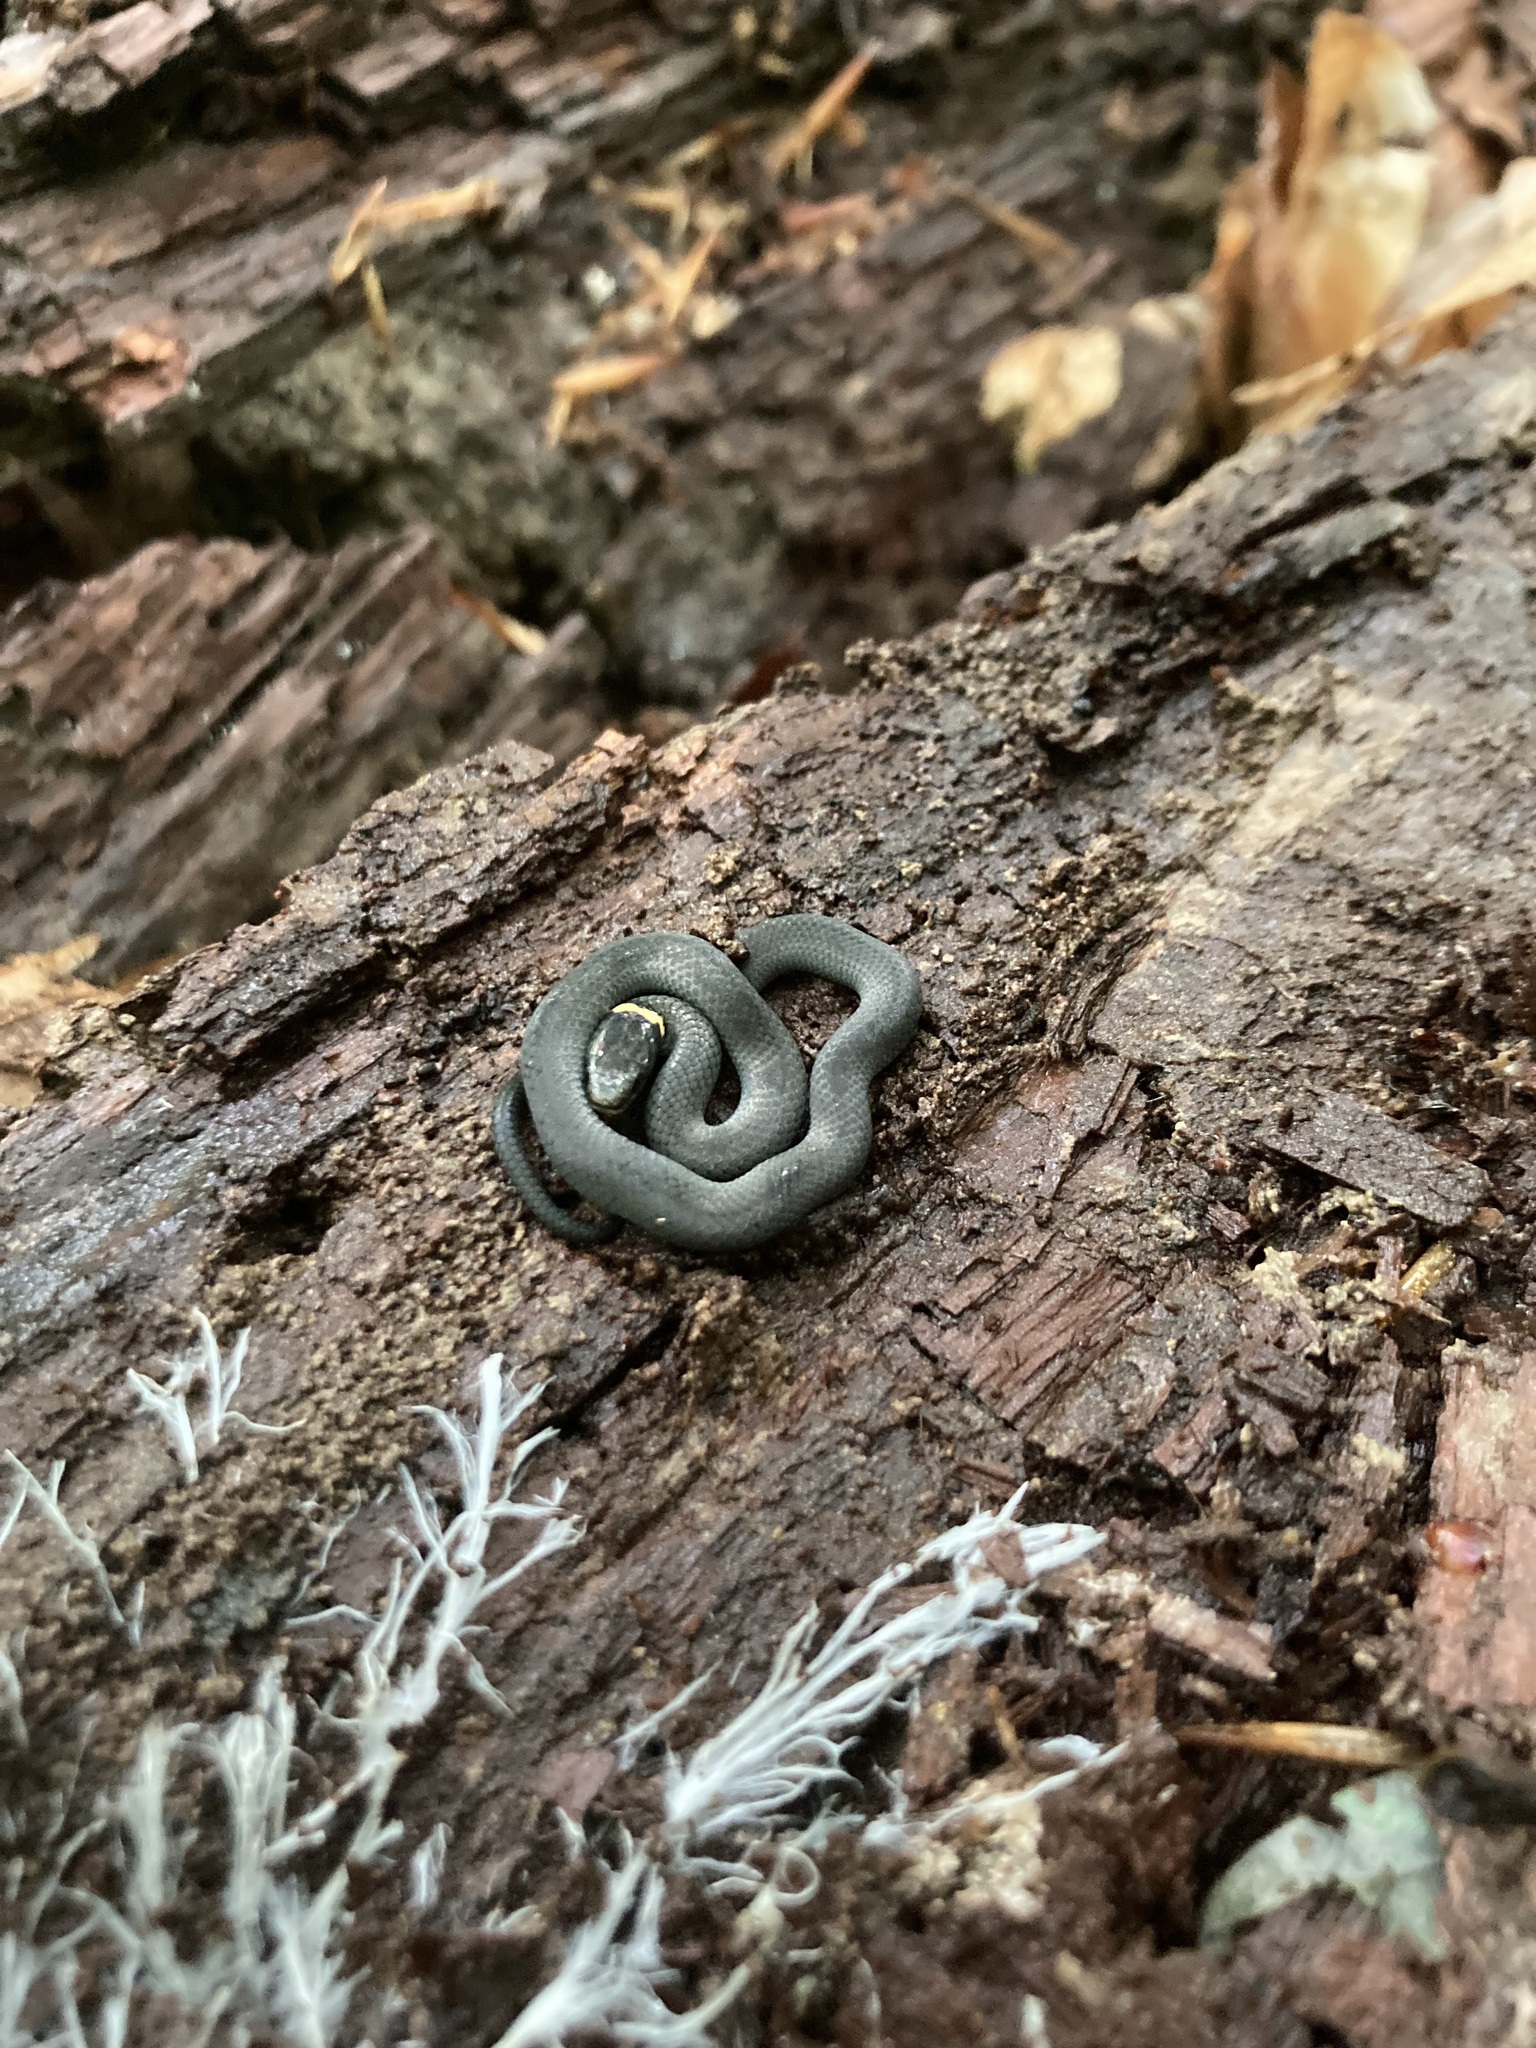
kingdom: Animalia
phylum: Chordata
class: Squamata
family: Colubridae
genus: Diadophis
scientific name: Diadophis punctatus
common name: Ringneck snake
